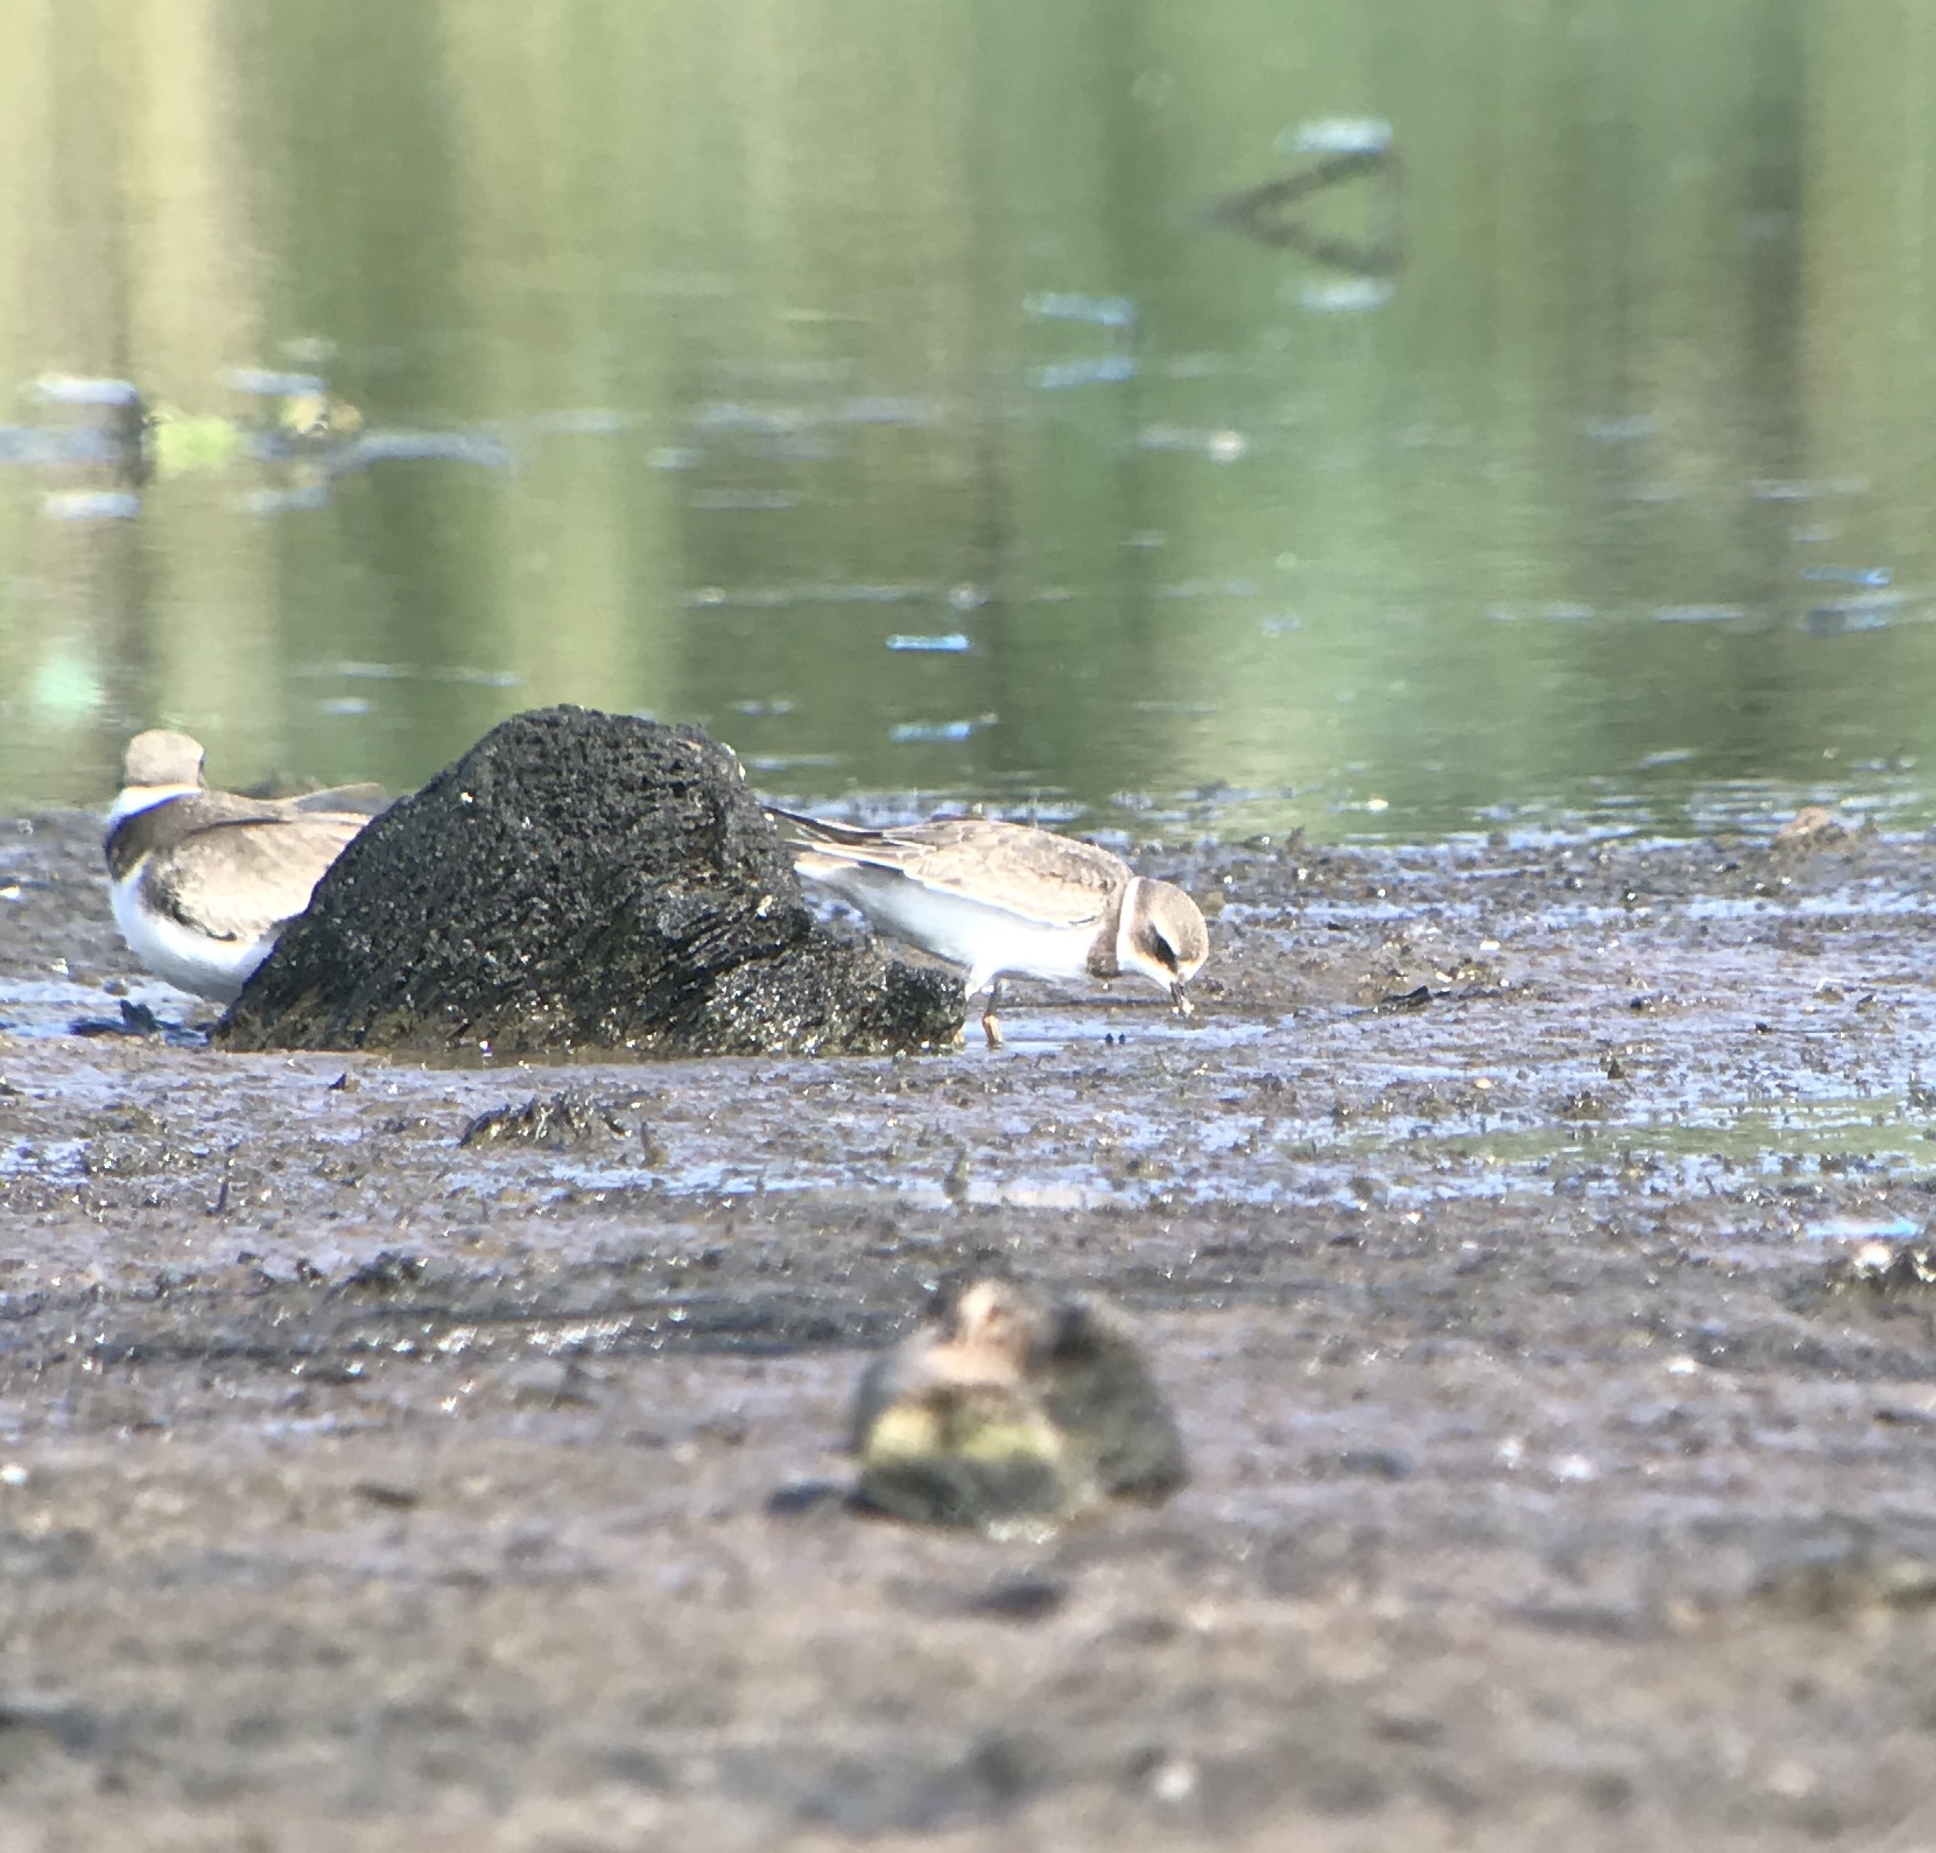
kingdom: Animalia
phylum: Chordata
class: Aves
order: Charadriiformes
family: Charadriidae
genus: Charadrius
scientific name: Charadrius semipalmatus
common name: Semipalmated plover
